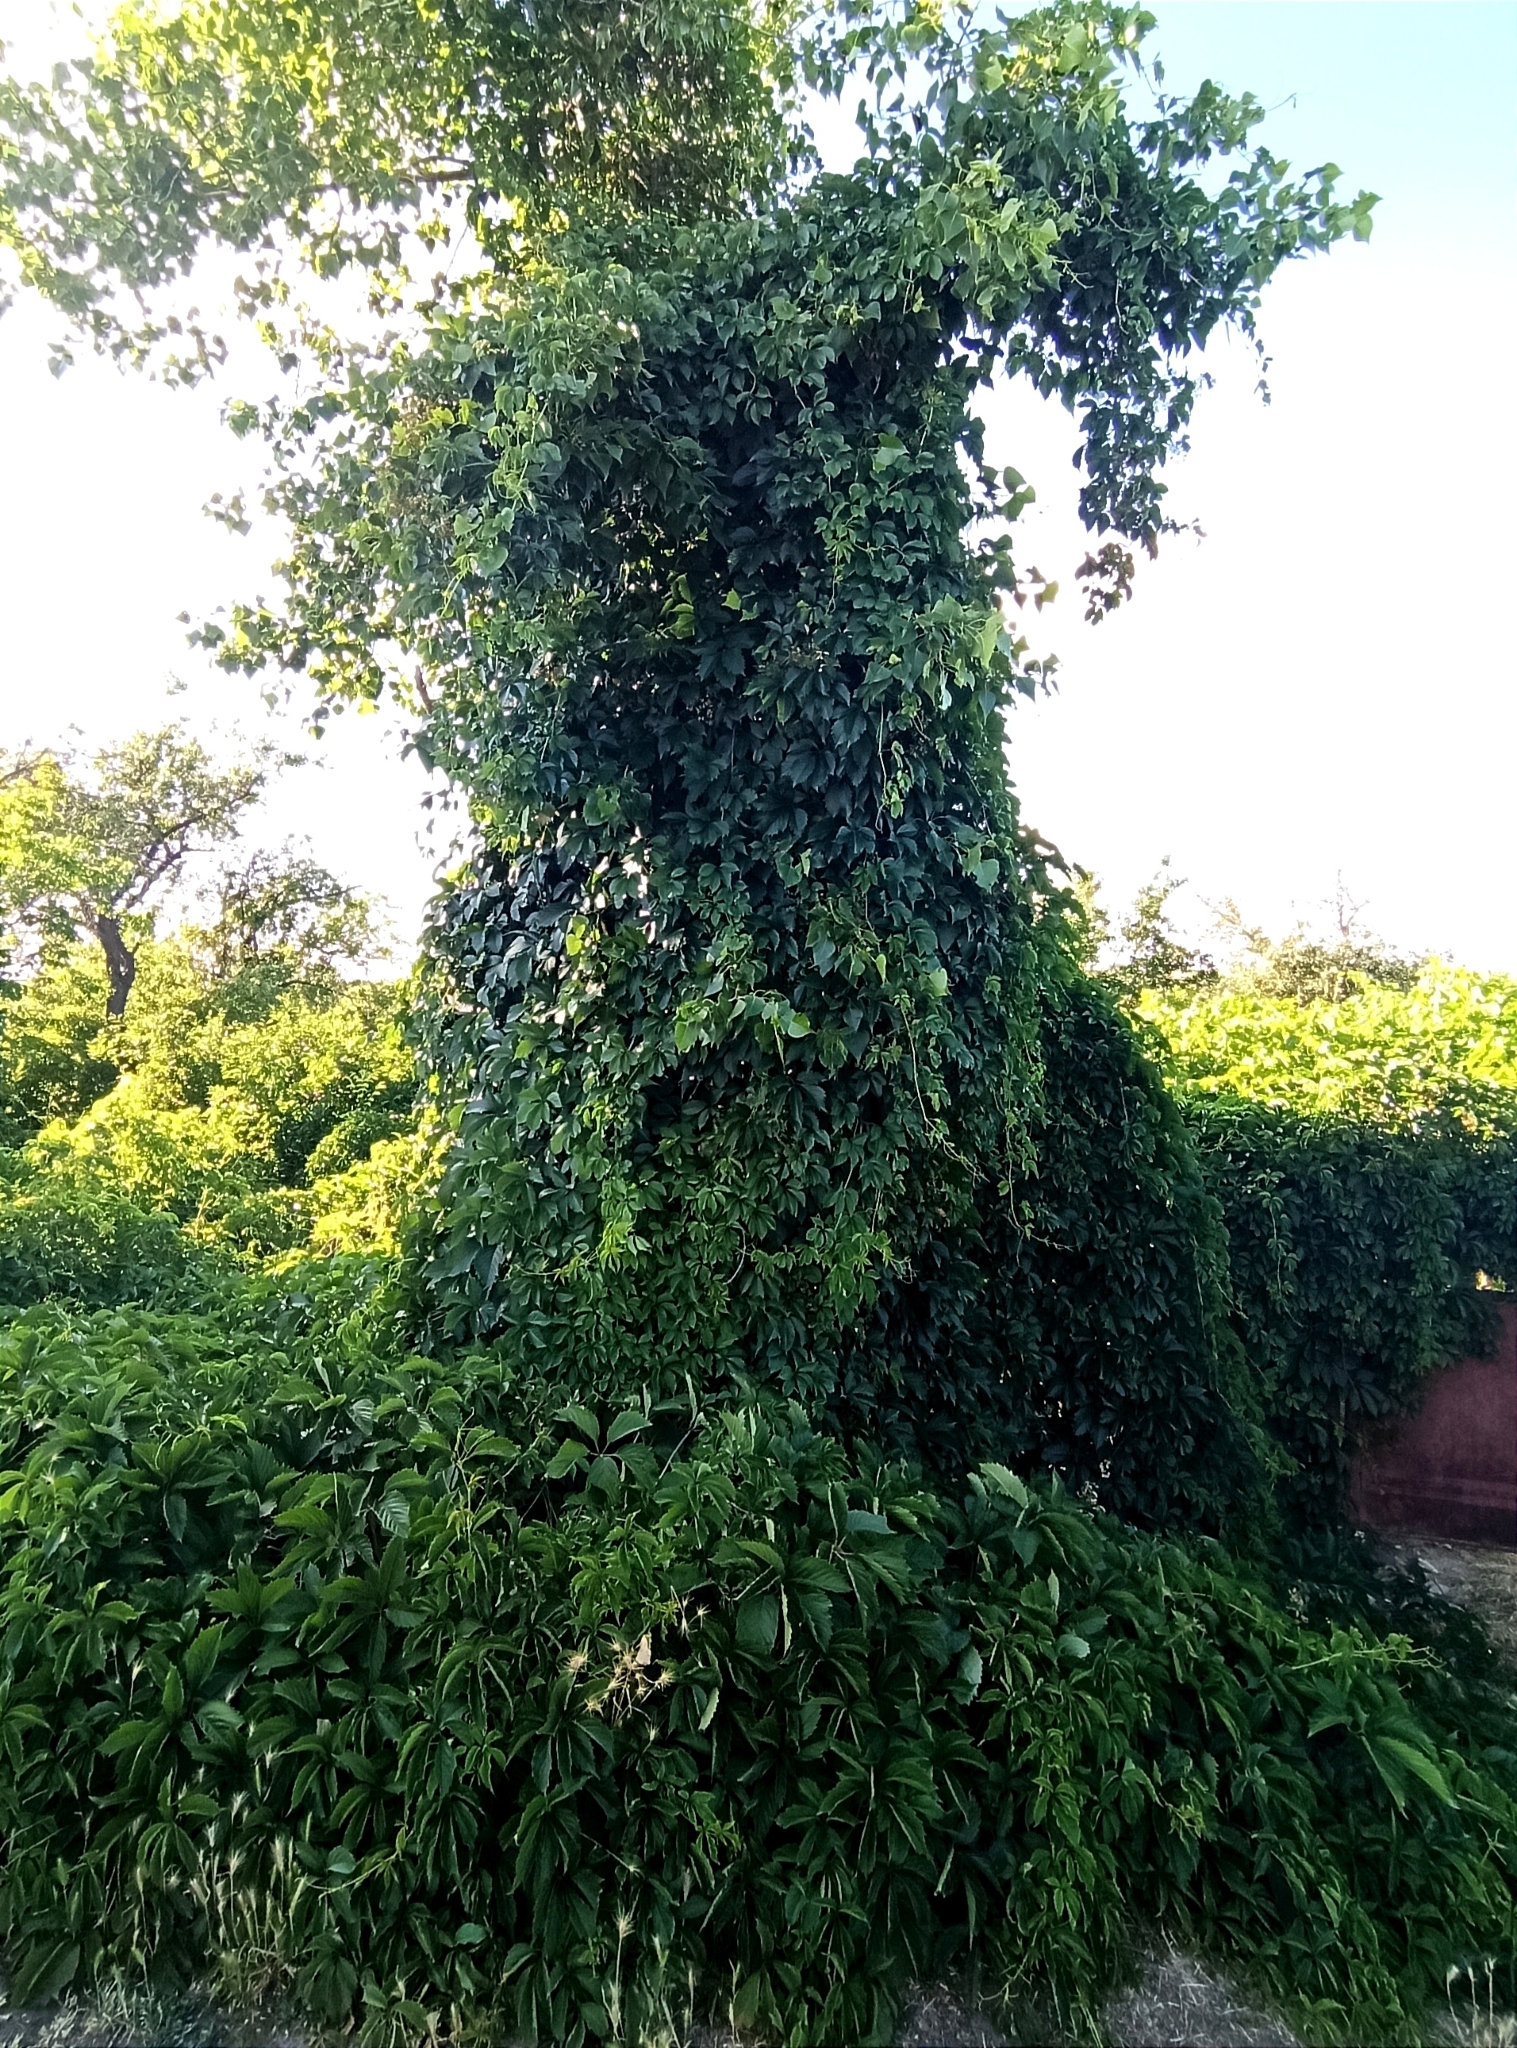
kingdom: Plantae
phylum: Tracheophyta
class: Magnoliopsida
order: Vitales
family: Vitaceae
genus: Parthenocissus
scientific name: Parthenocissus inserta
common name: False virginia-creeper
